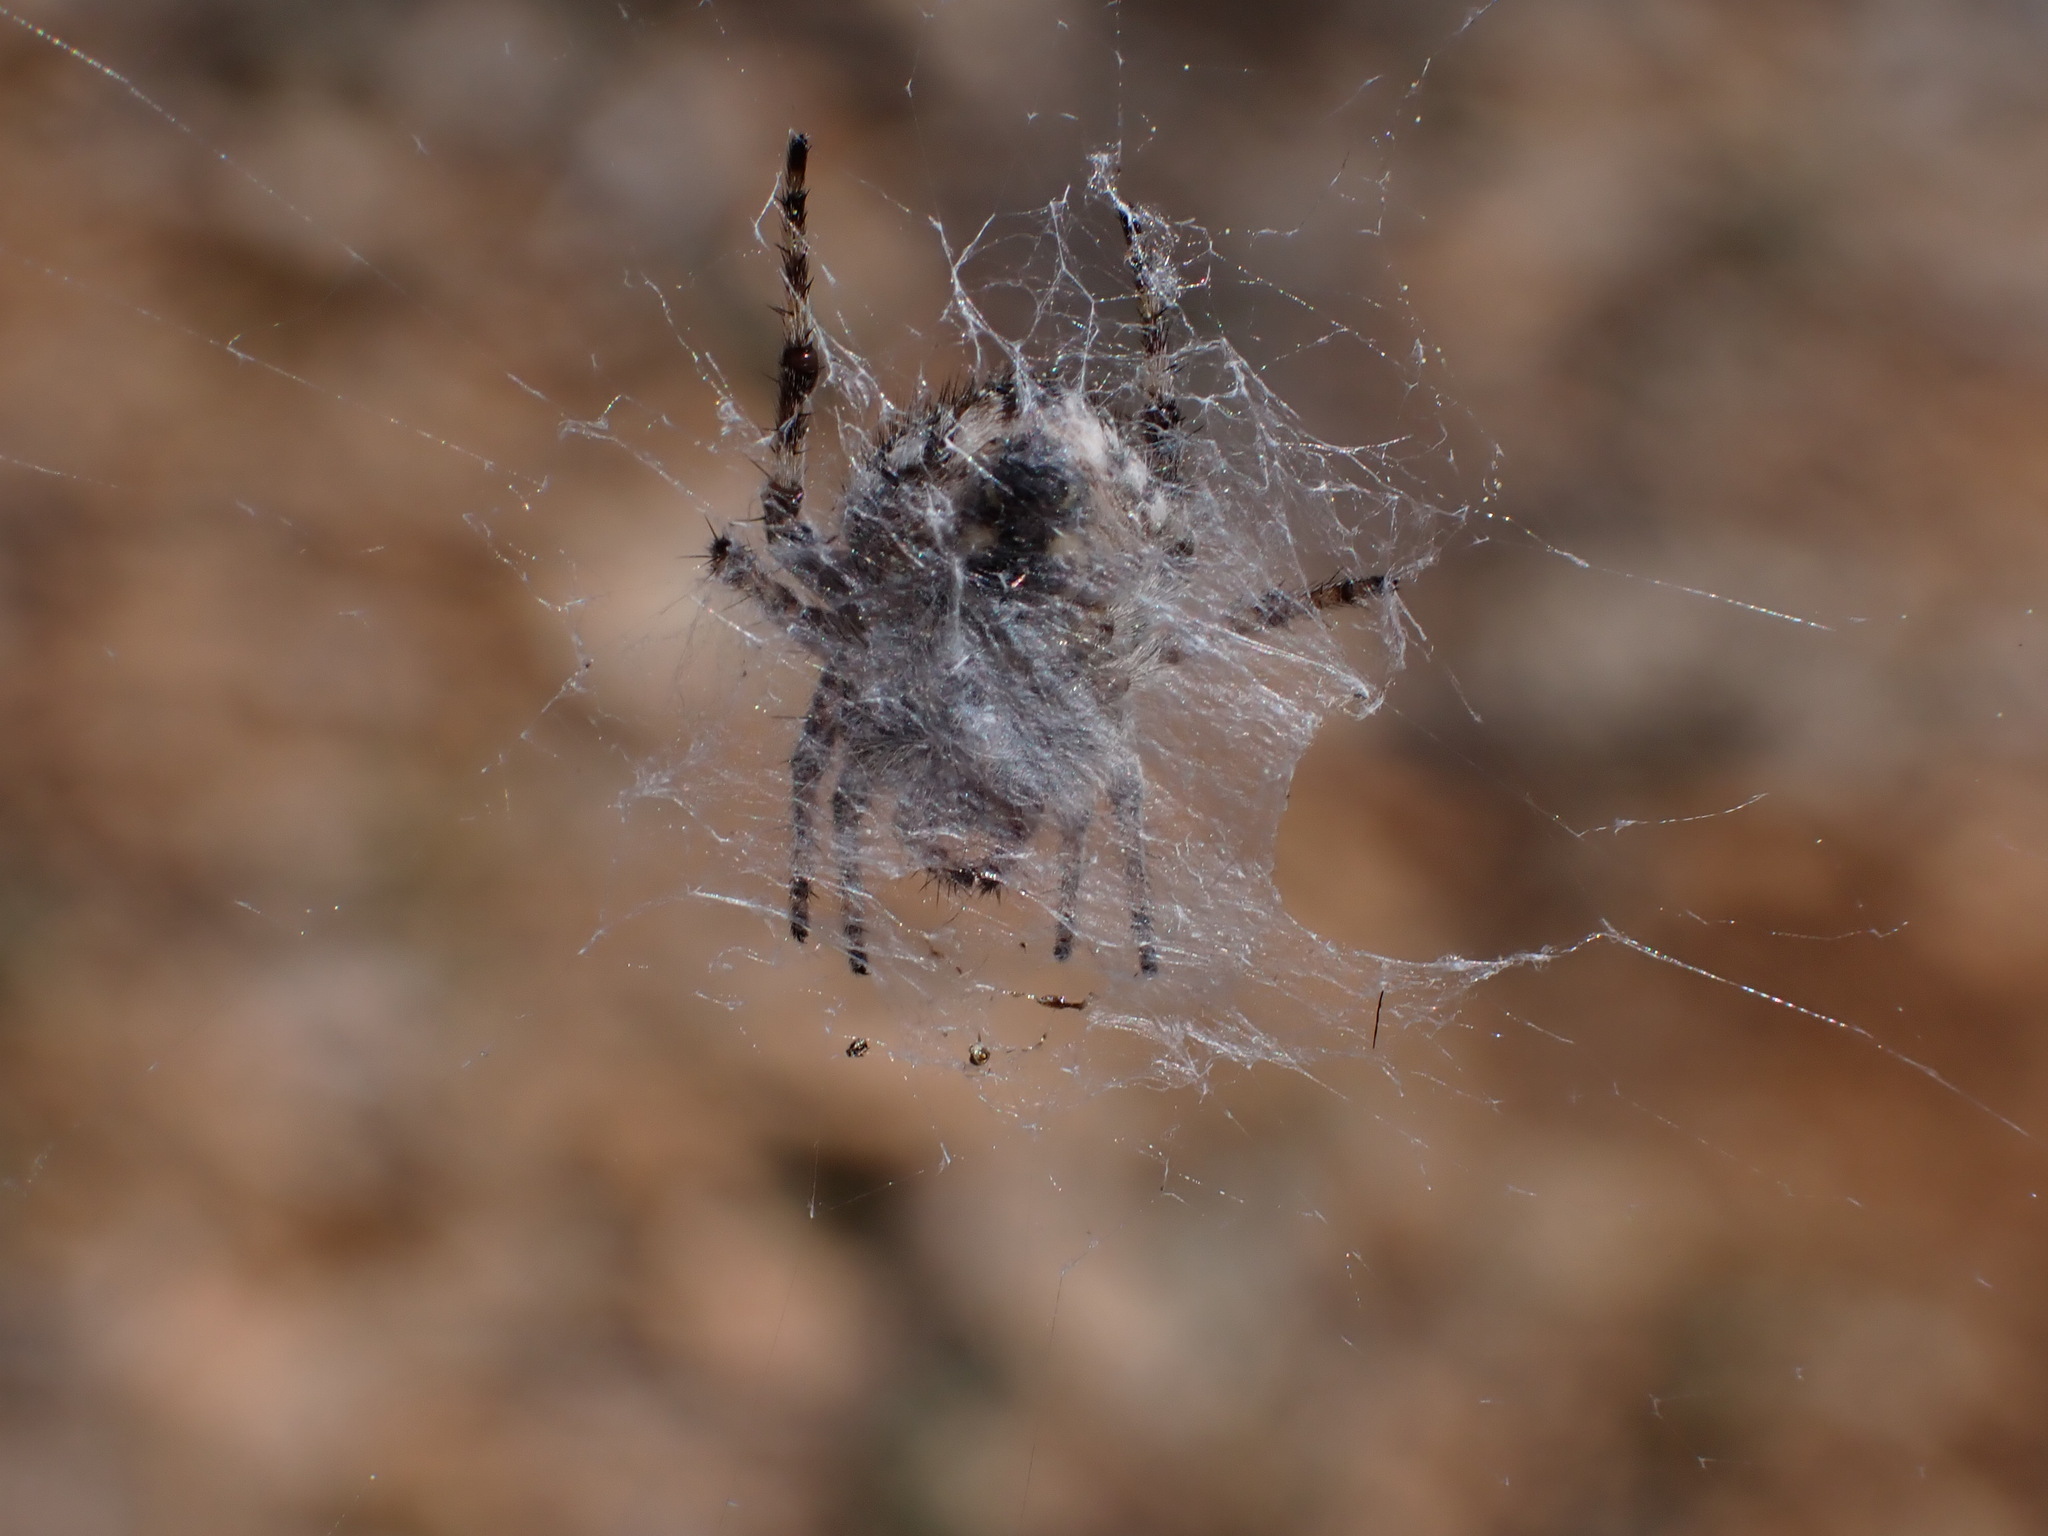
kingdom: Animalia
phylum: Arthropoda
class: Arachnida
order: Araneae
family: Araneidae
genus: Agalenatea
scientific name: Agalenatea redii
